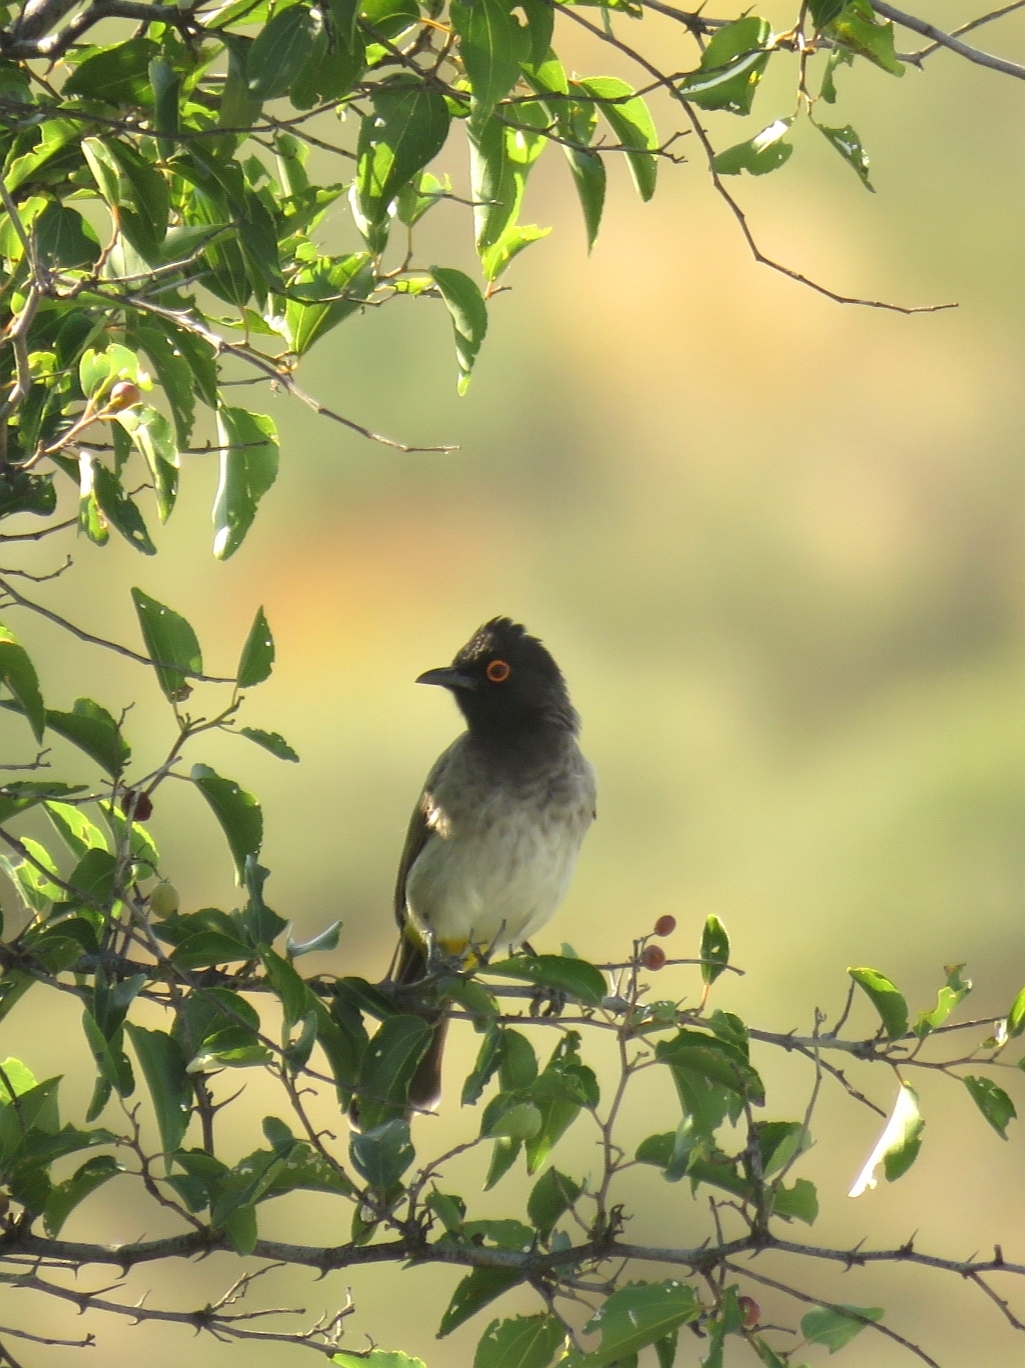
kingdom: Animalia
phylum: Chordata
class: Aves
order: Passeriformes
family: Pycnonotidae
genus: Pycnonotus
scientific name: Pycnonotus nigricans
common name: African red-eyed bulbul
